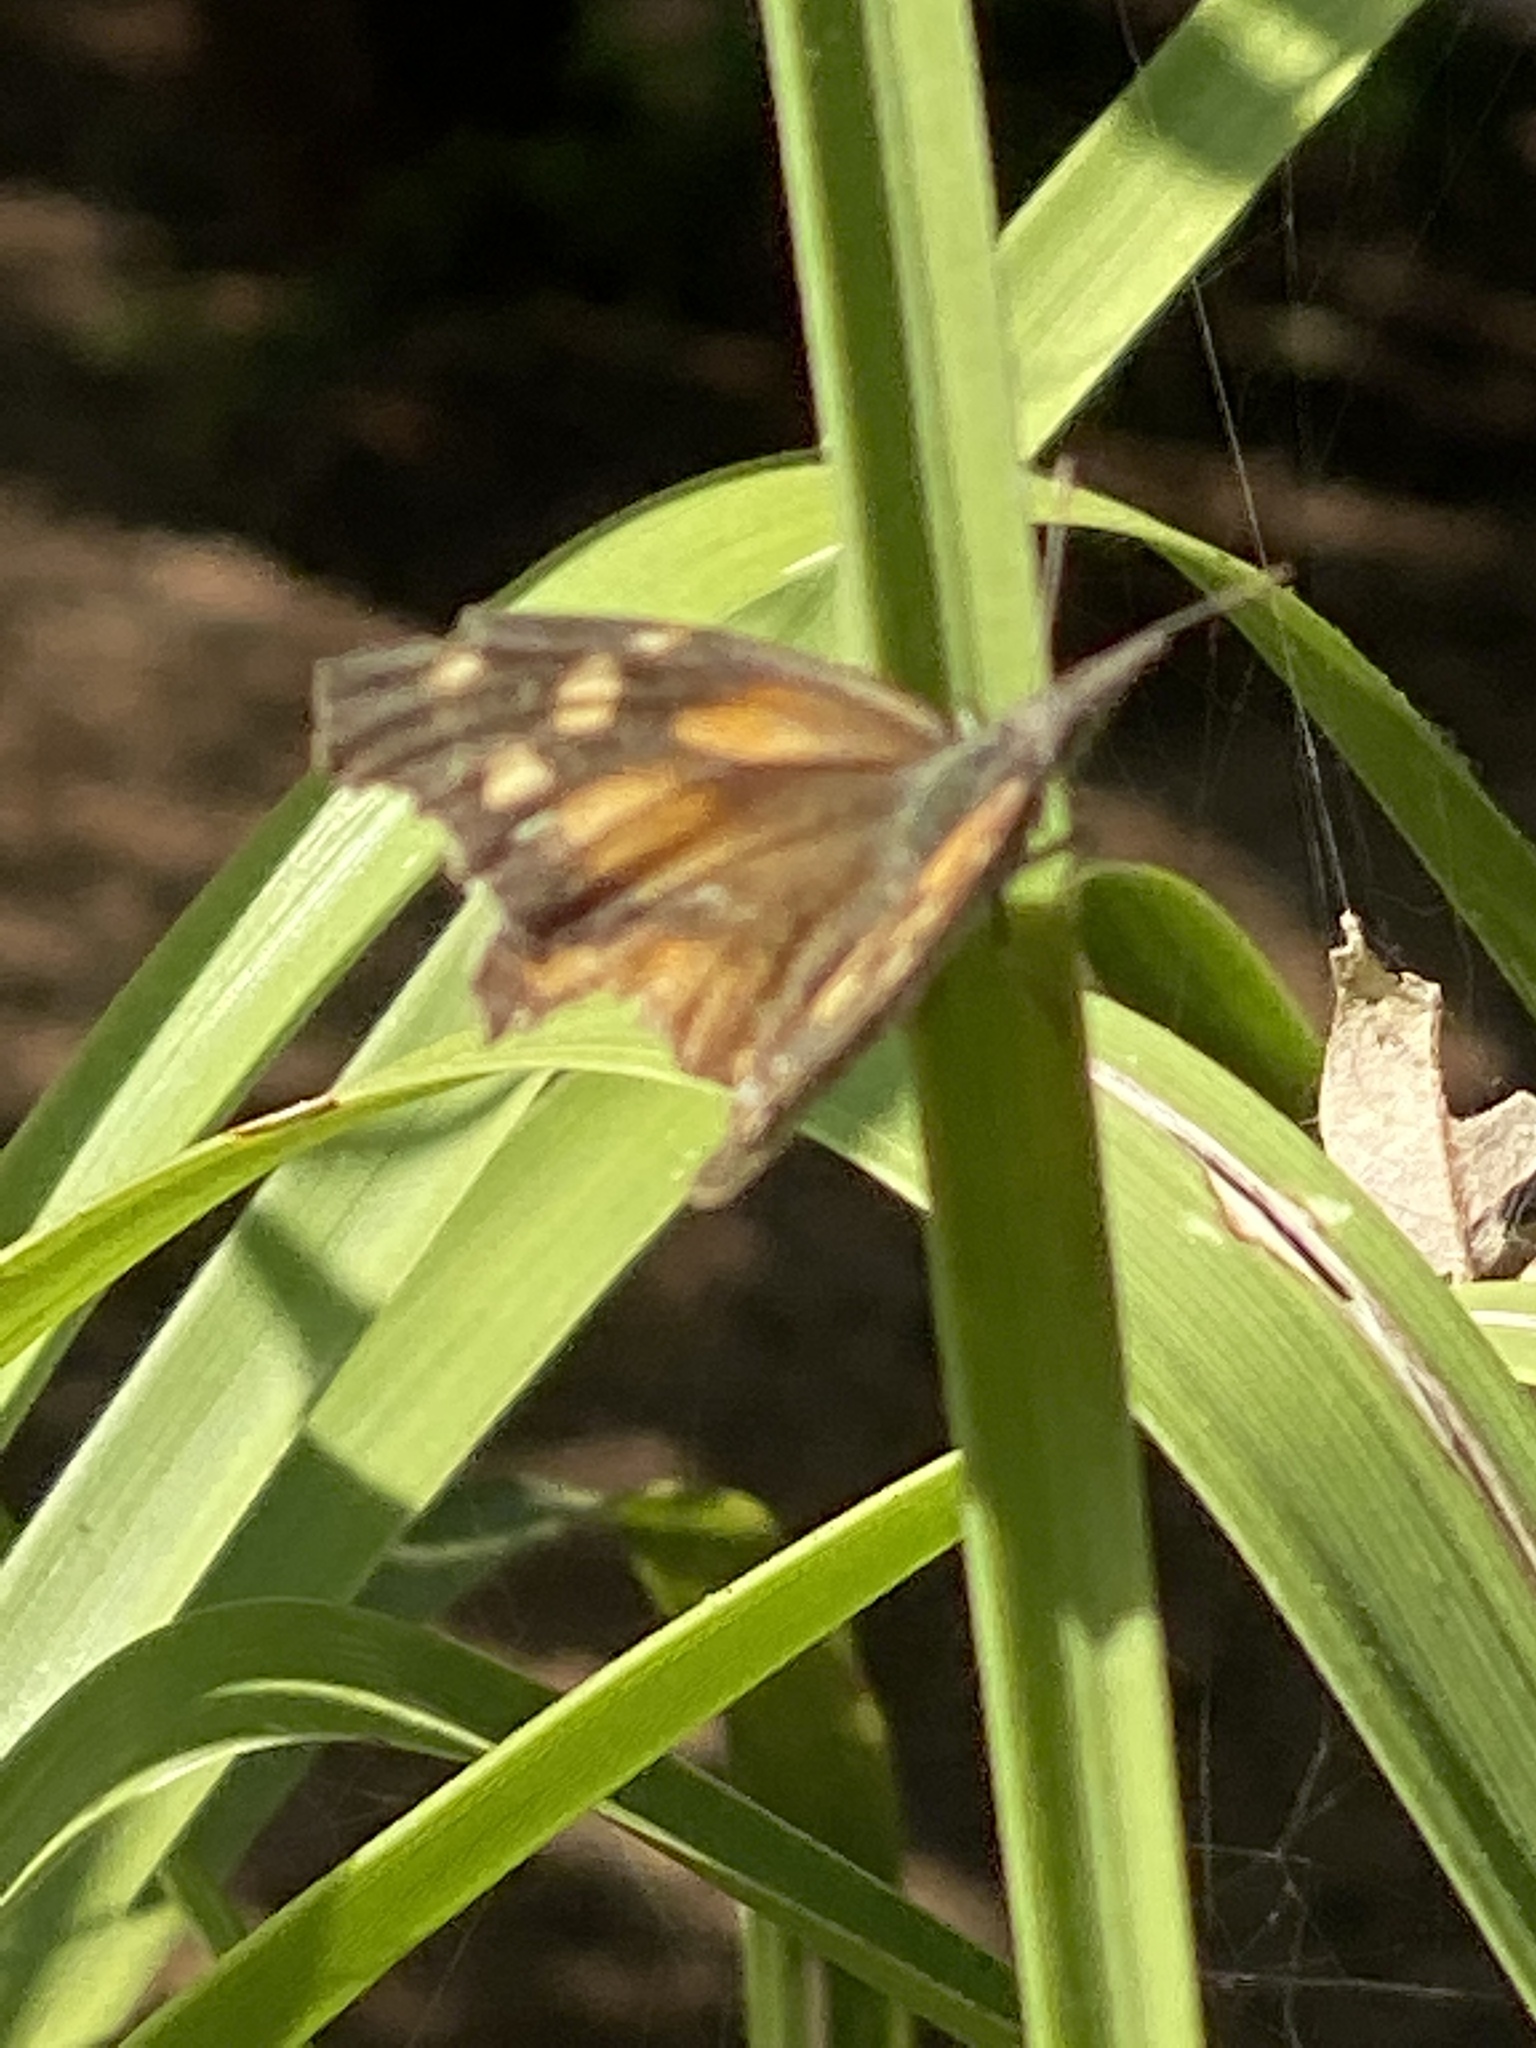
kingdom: Animalia
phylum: Arthropoda
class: Insecta
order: Lepidoptera
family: Nymphalidae
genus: Libytheana
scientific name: Libytheana carinenta
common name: American snout
